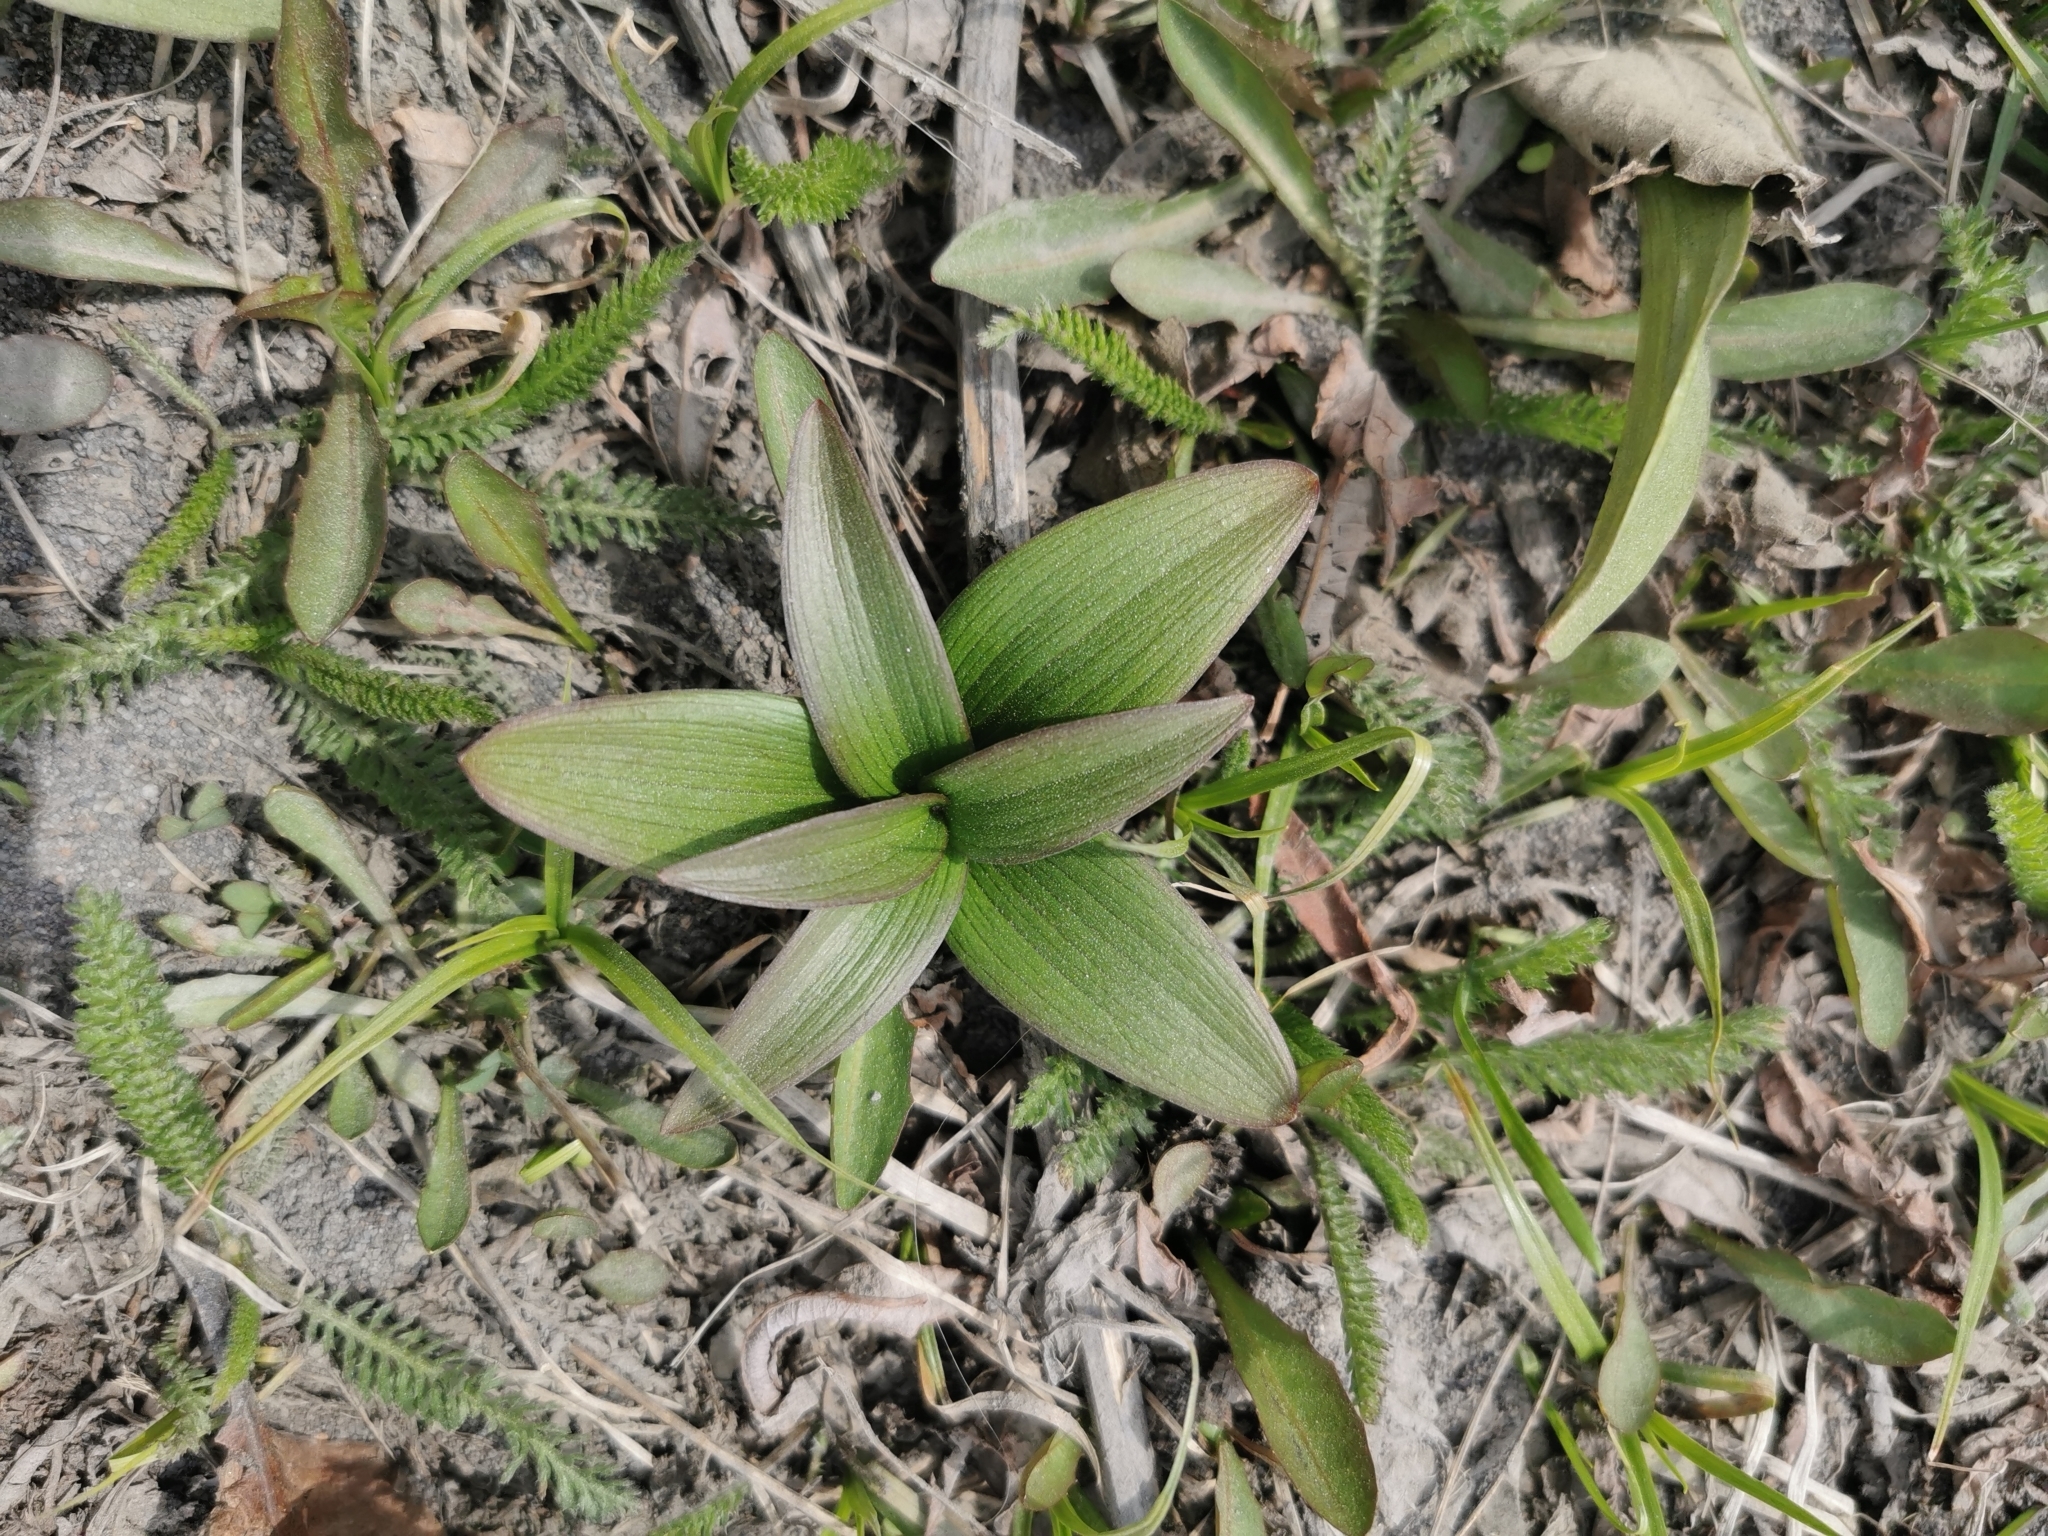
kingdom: Plantae
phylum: Tracheophyta
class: Liliopsida
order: Liliales
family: Liliaceae
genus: Fritillaria
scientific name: Fritillaria camschatcensis
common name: Kamchatka fritillary
